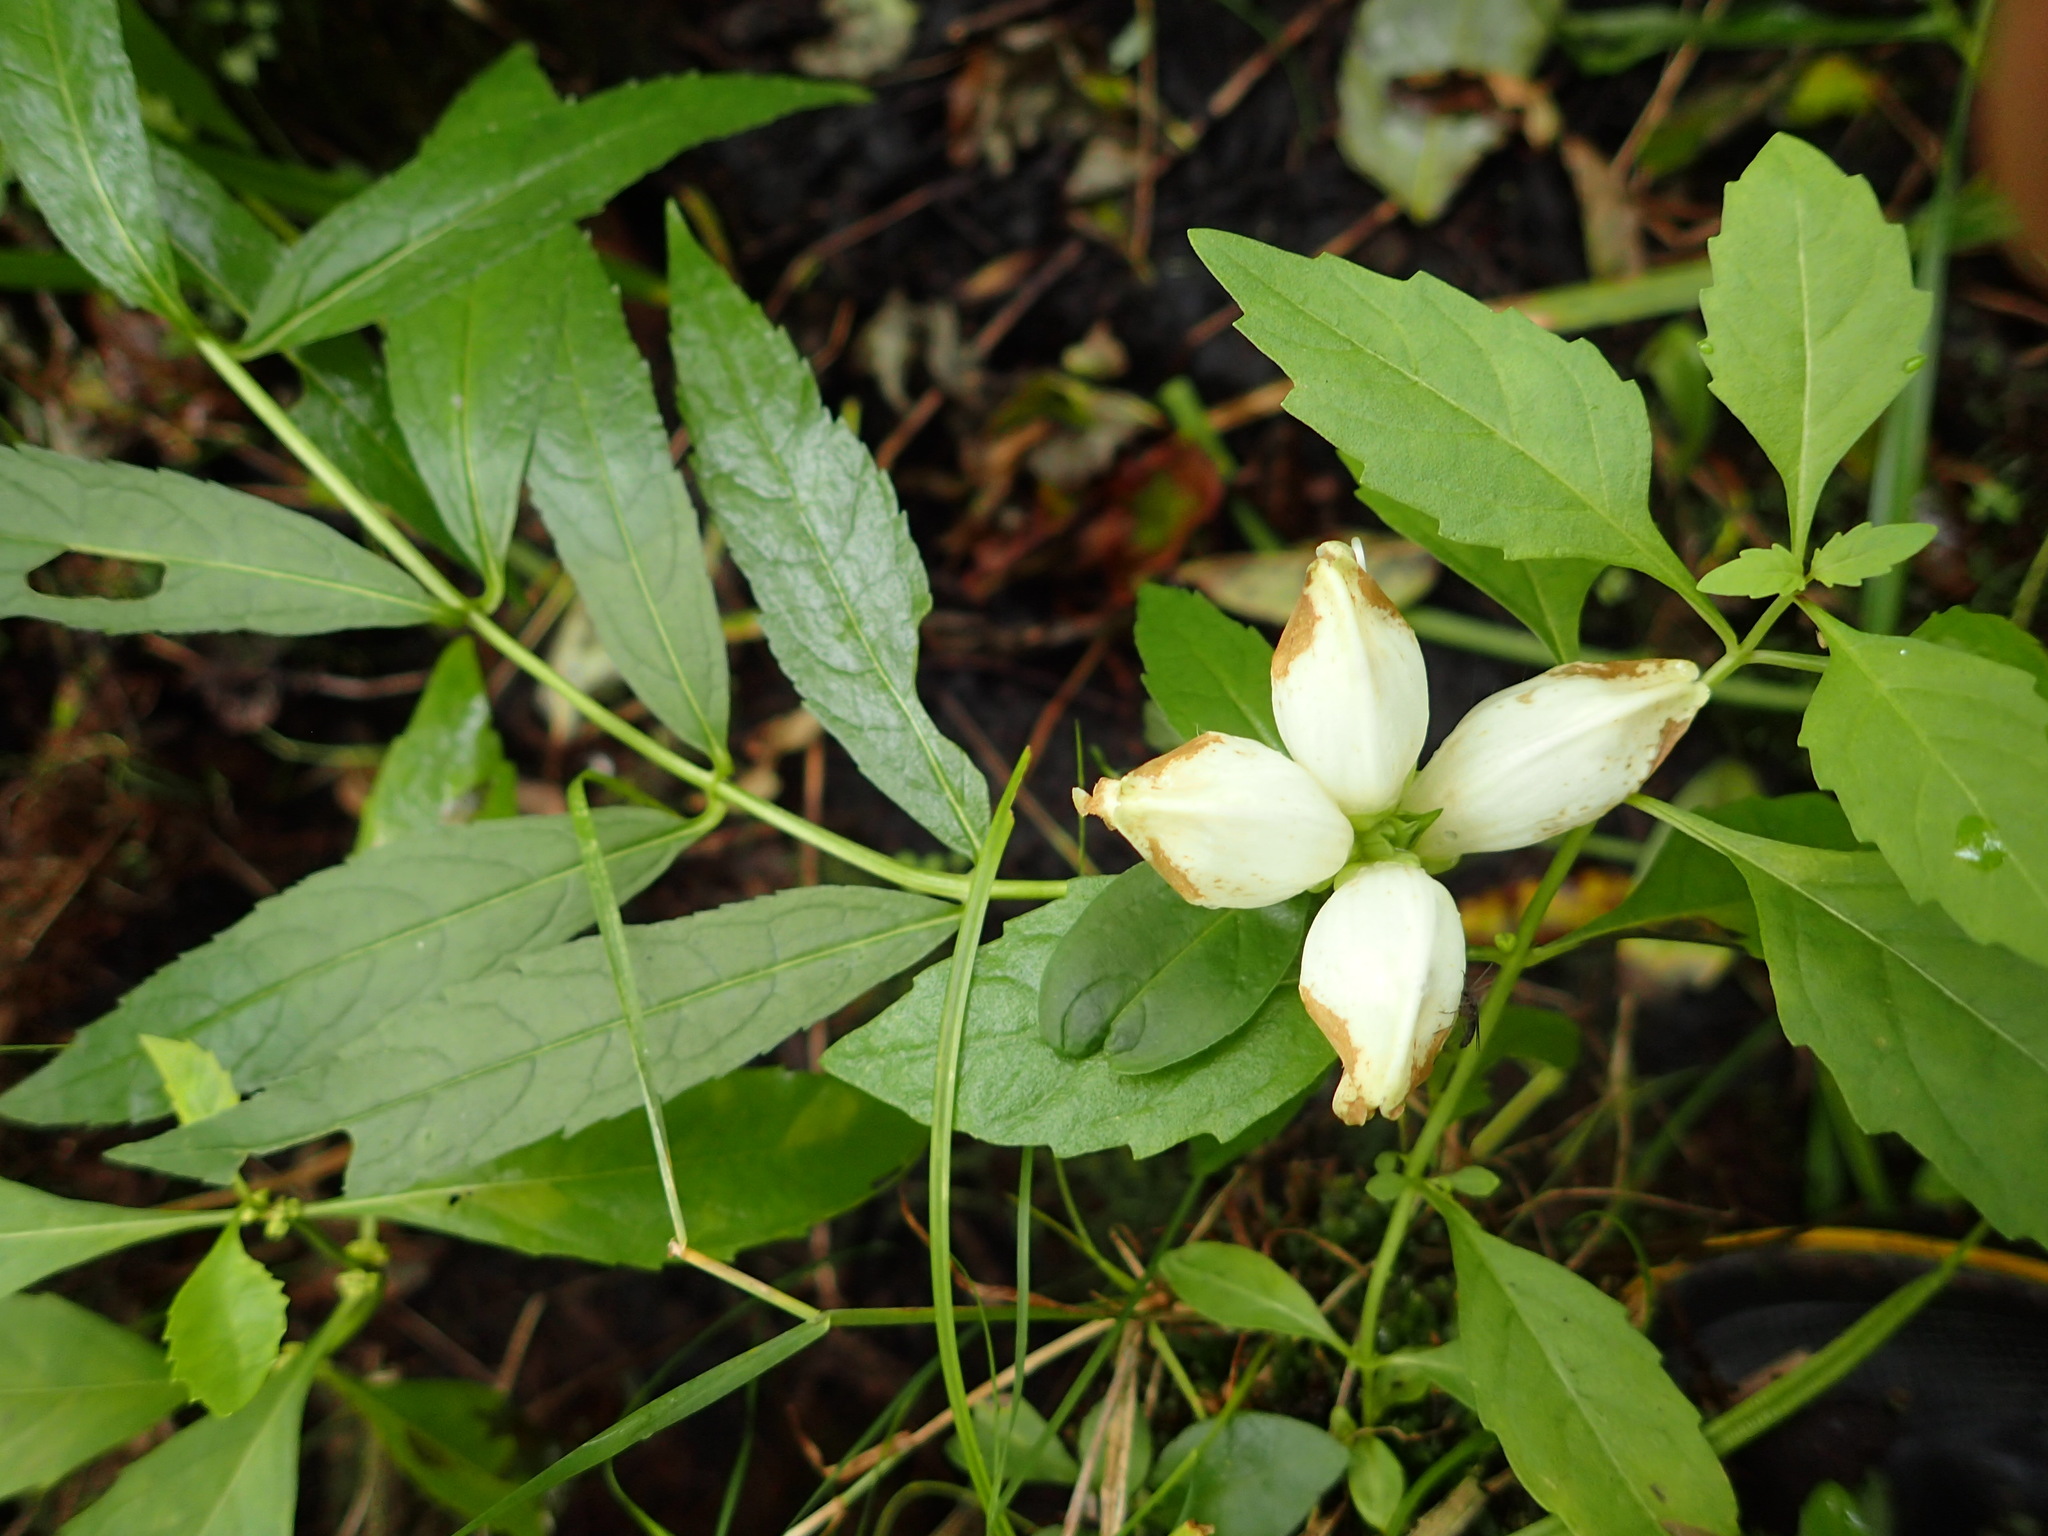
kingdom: Plantae
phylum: Tracheophyta
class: Magnoliopsida
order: Lamiales
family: Plantaginaceae
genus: Chelone
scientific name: Chelone glabra
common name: Snakehead
